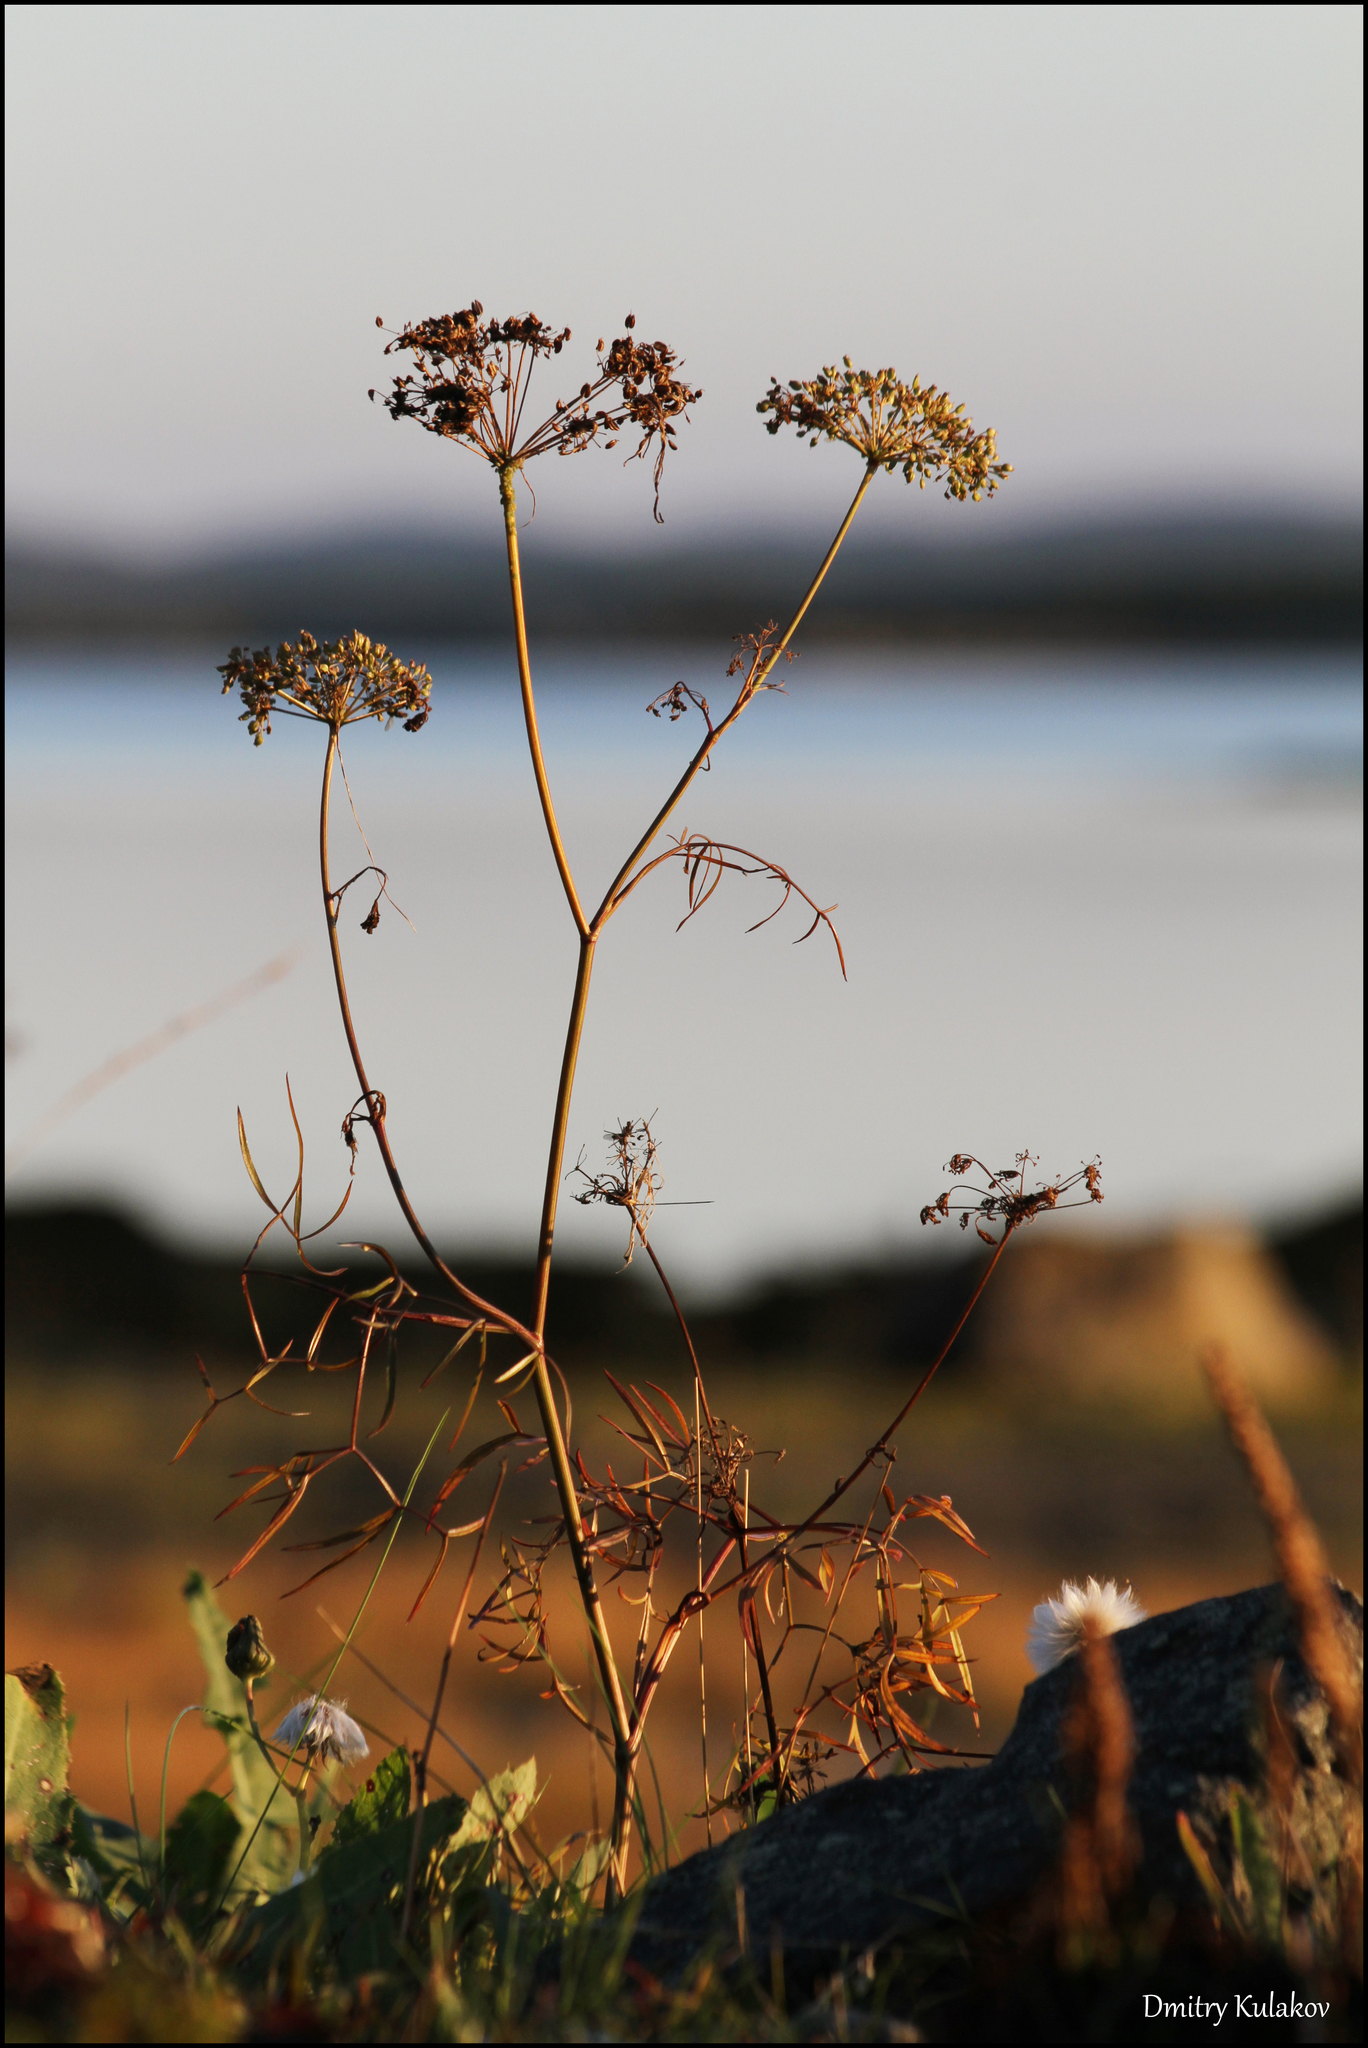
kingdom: Plantae
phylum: Tracheophyta
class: Magnoliopsida
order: Apiales
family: Apiaceae
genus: Cenolophium
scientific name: Cenolophium fischeri
